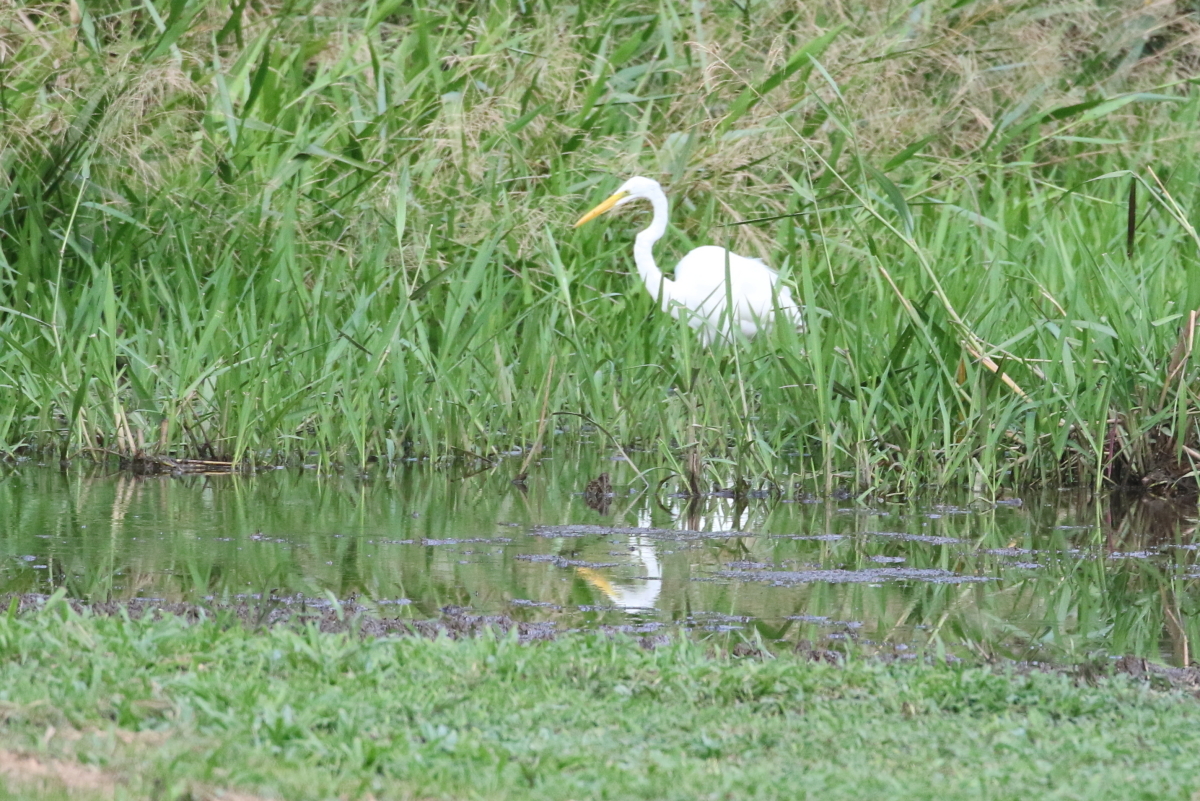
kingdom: Animalia
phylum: Chordata
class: Aves
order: Pelecaniformes
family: Ardeidae
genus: Ardea
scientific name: Ardea alba
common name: Great egret
